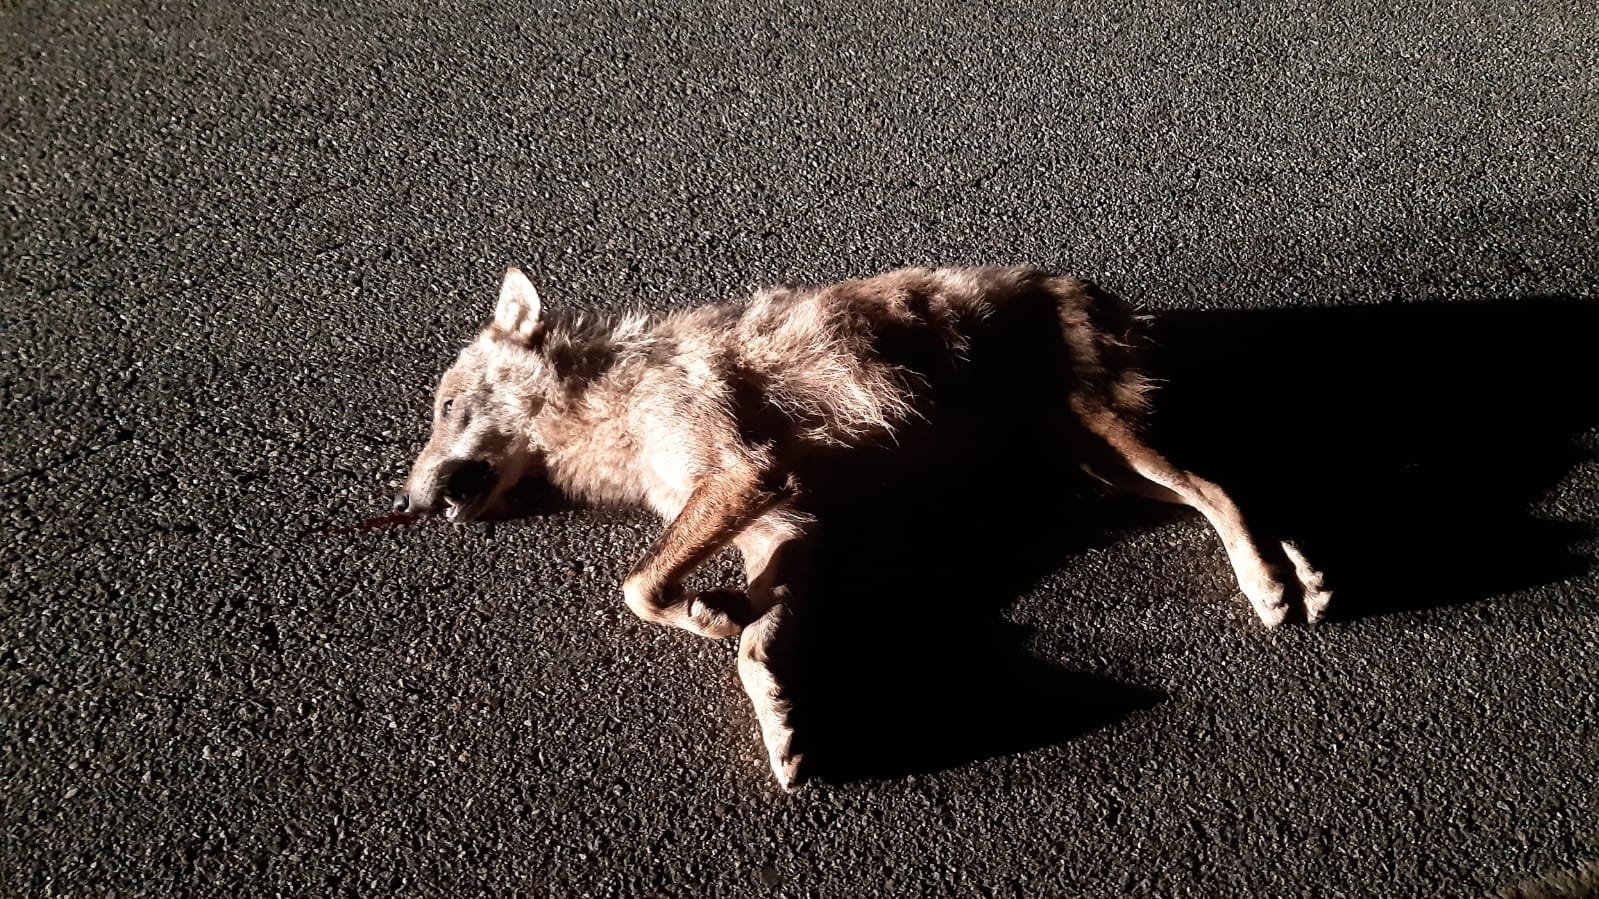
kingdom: Animalia
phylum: Chordata
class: Mammalia
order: Carnivora
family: Canidae
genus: Canis
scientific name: Canis lupus
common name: Gray wolf
